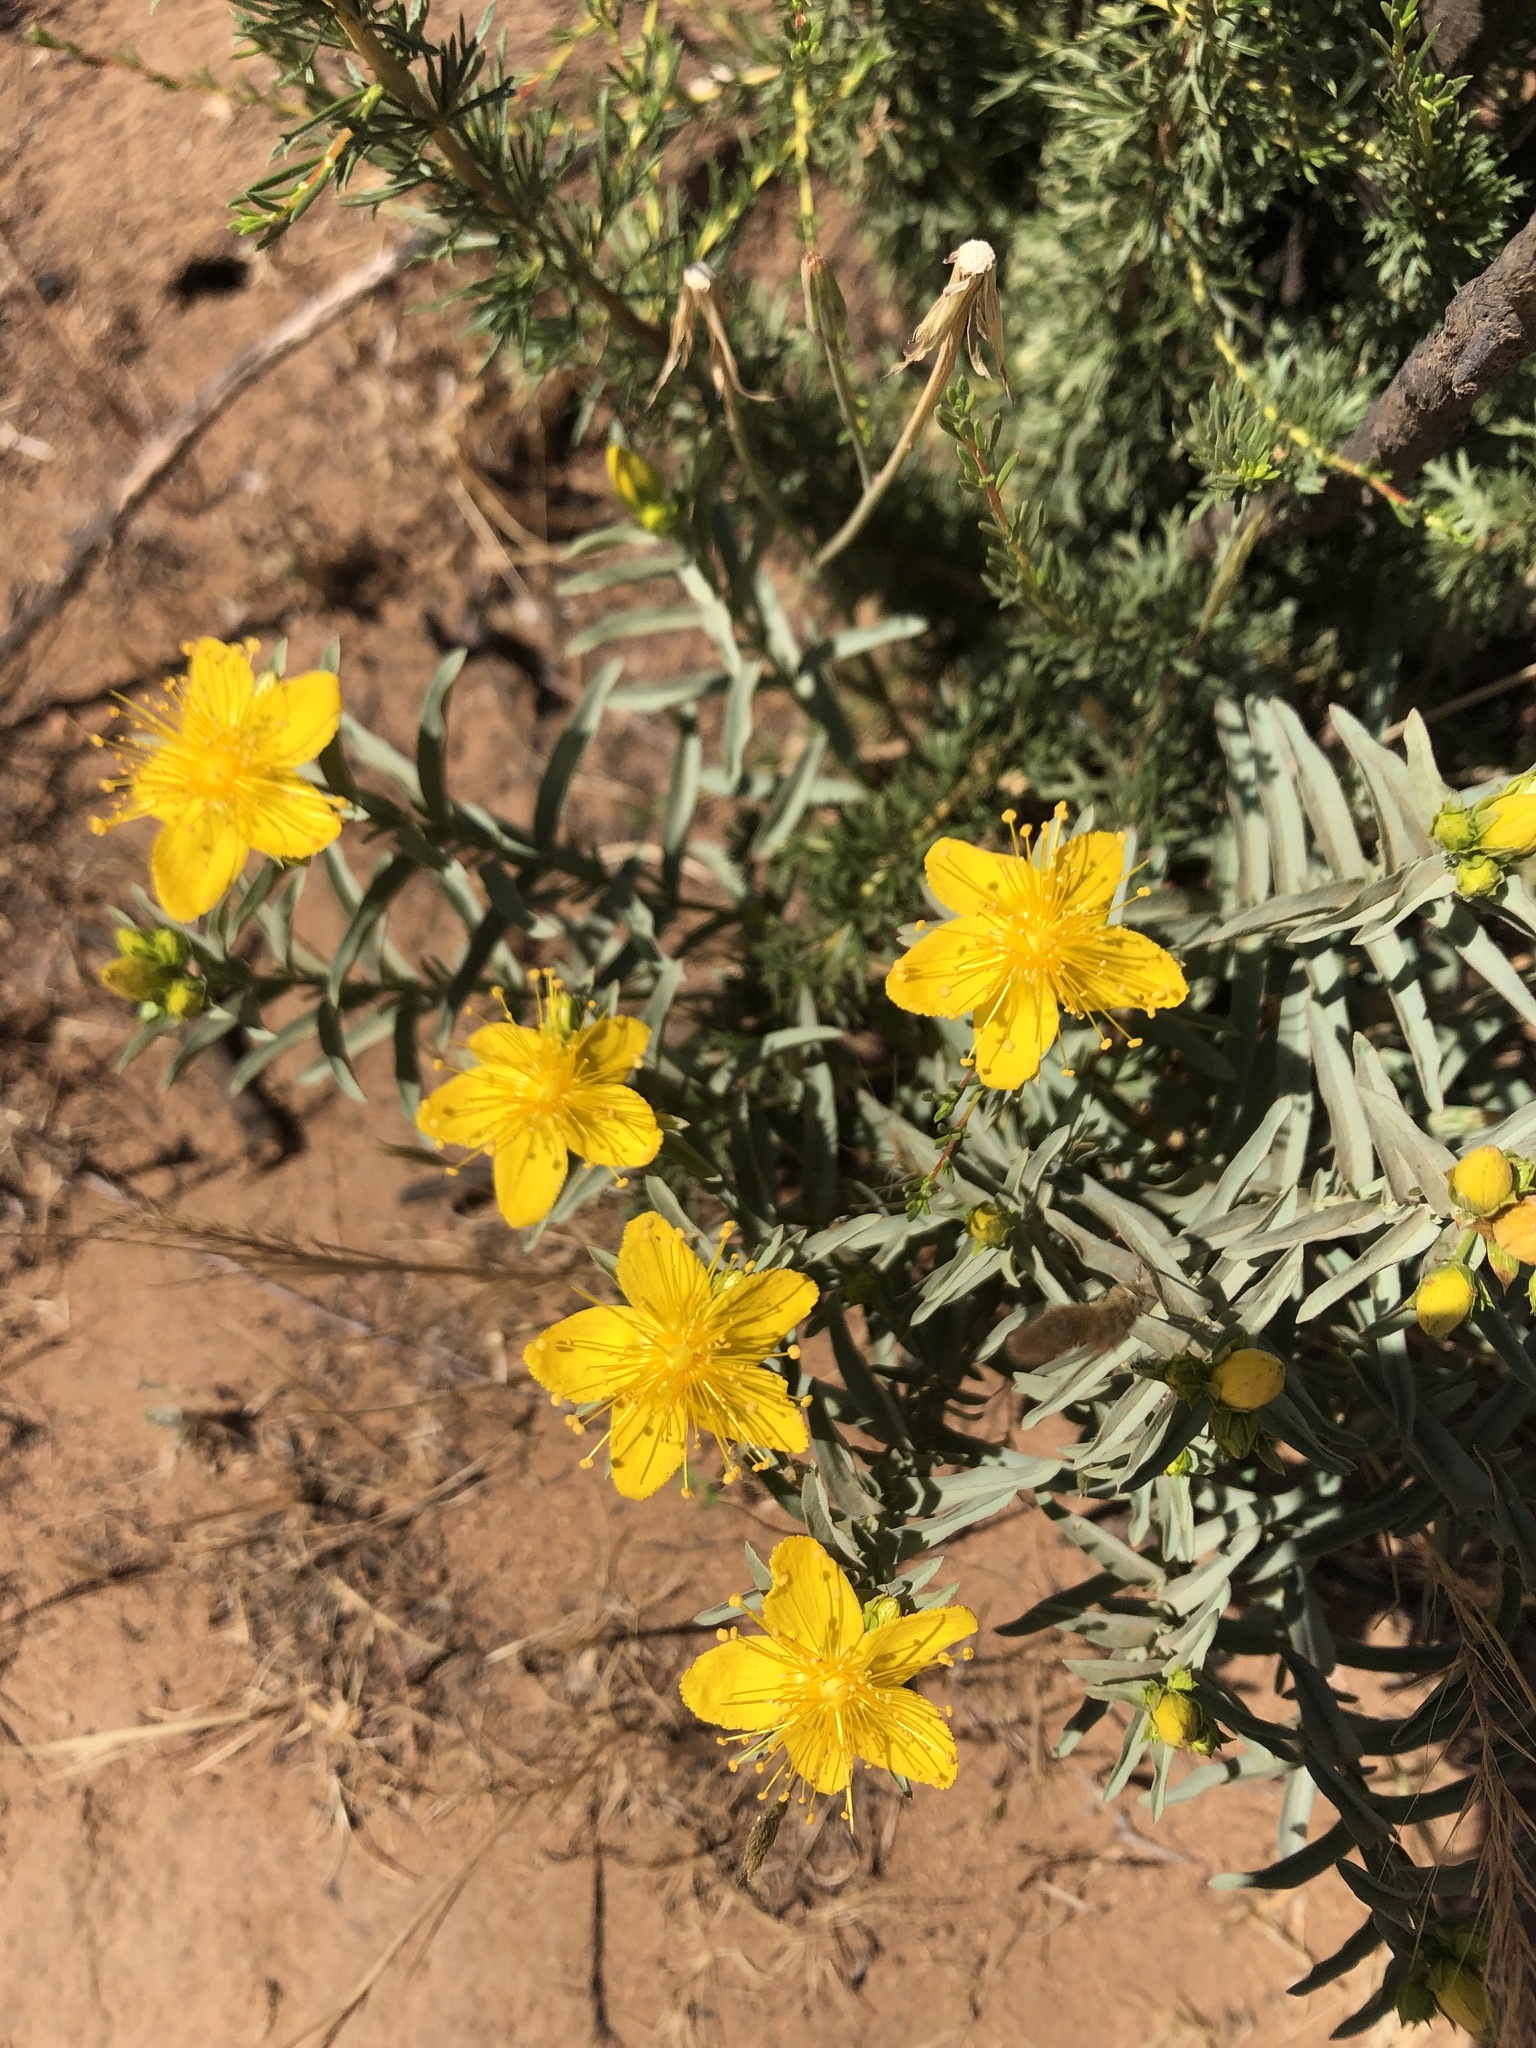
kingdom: Plantae
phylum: Tracheophyta
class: Magnoliopsida
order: Malpighiales
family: Hypericaceae
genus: Hypericum
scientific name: Hypericum concinnum
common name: Gold-wire
